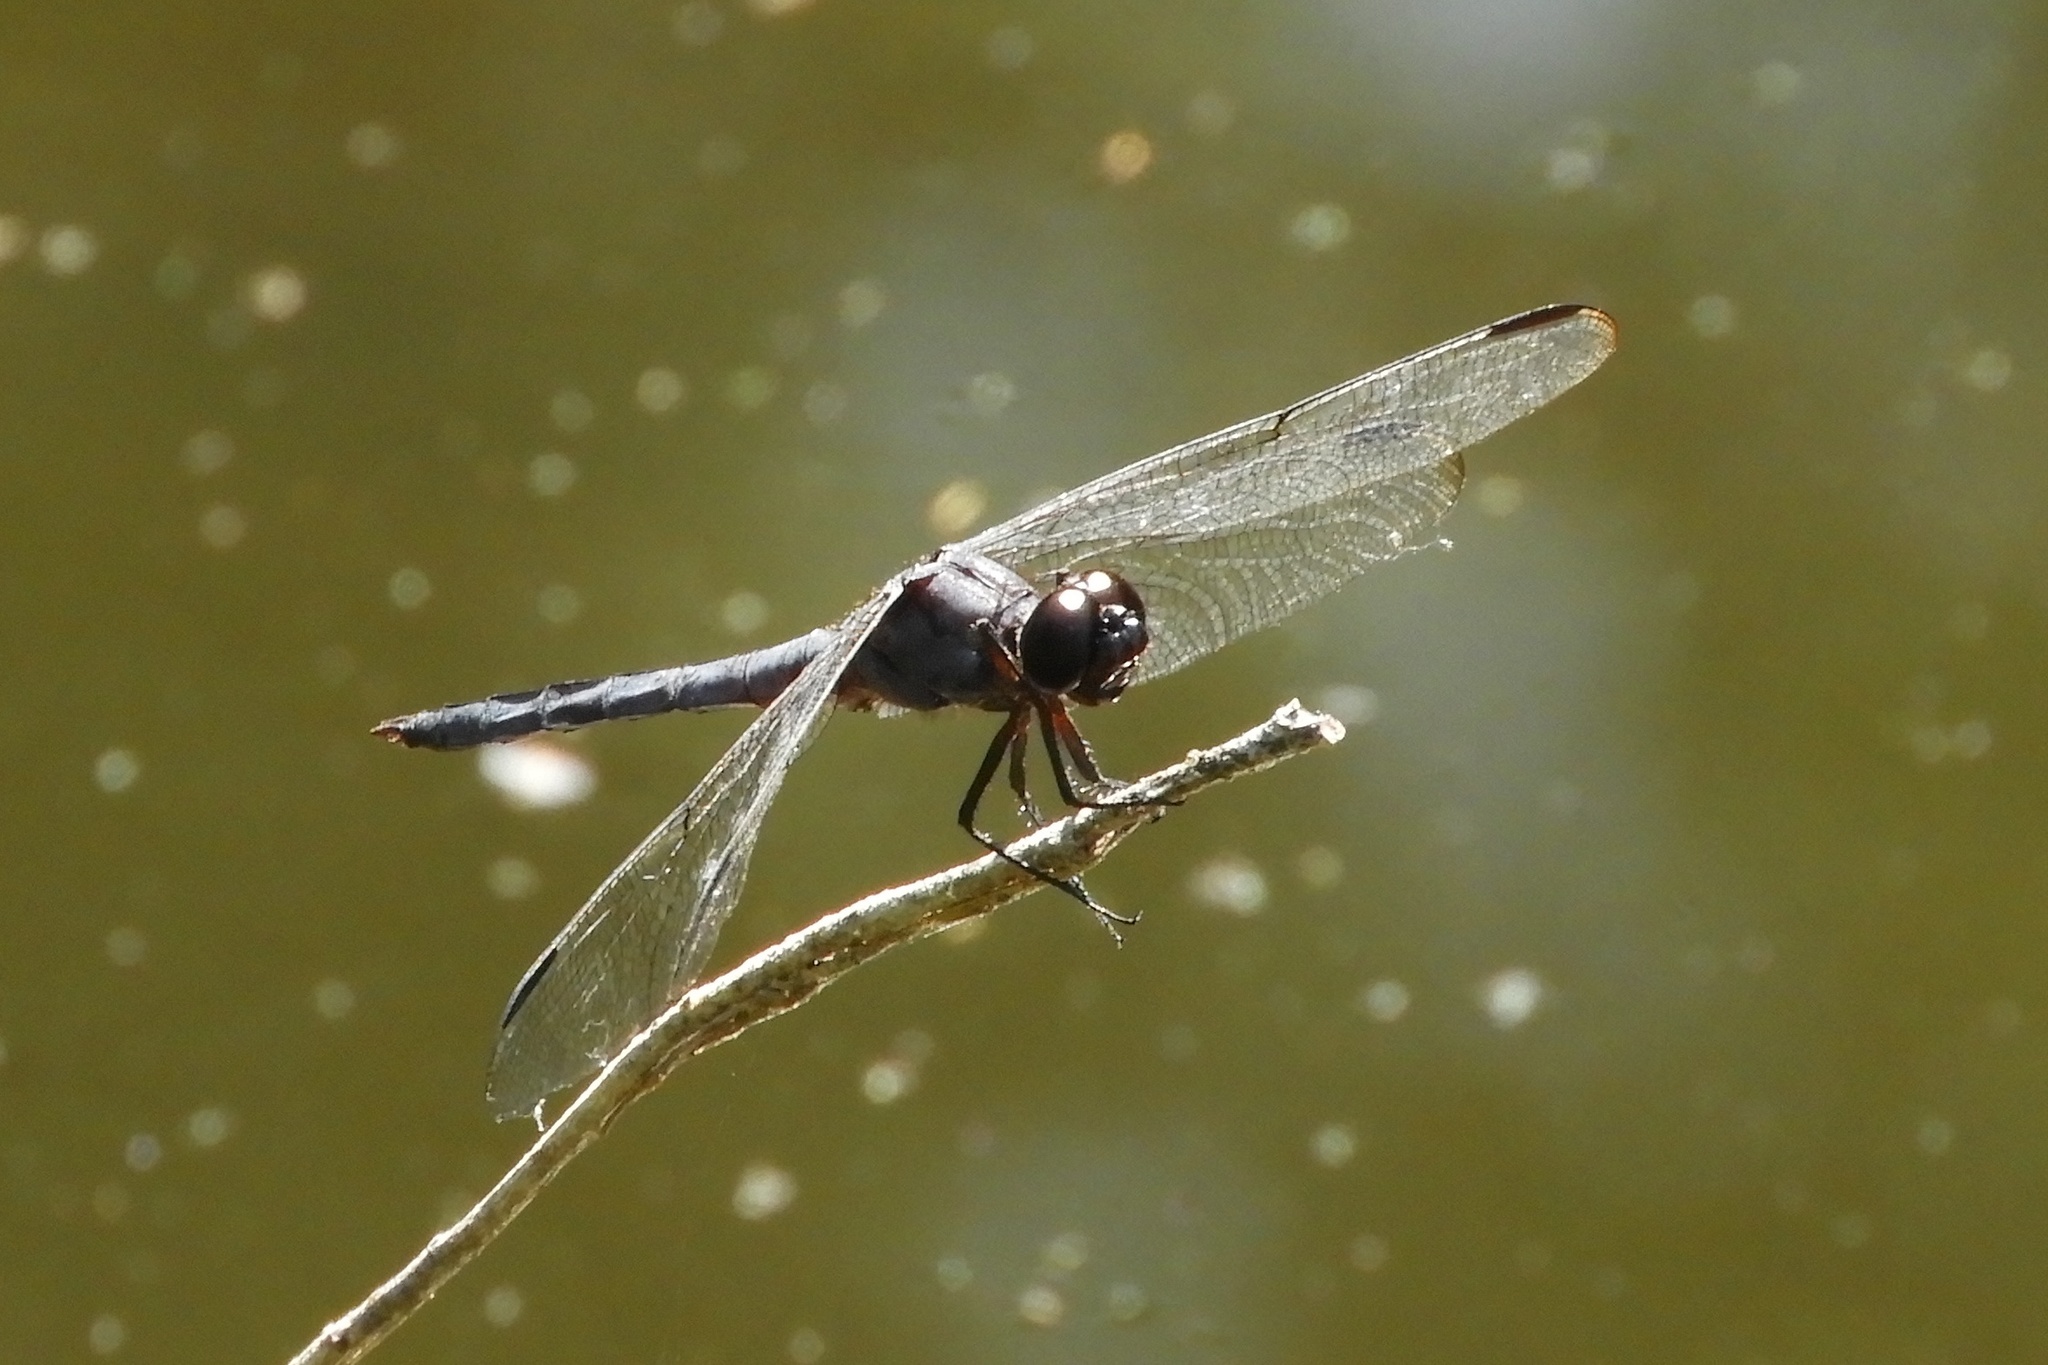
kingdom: Animalia
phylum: Arthropoda
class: Insecta
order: Odonata
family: Libellulidae
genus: Libellula
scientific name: Libellula incesta
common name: Slaty skimmer
